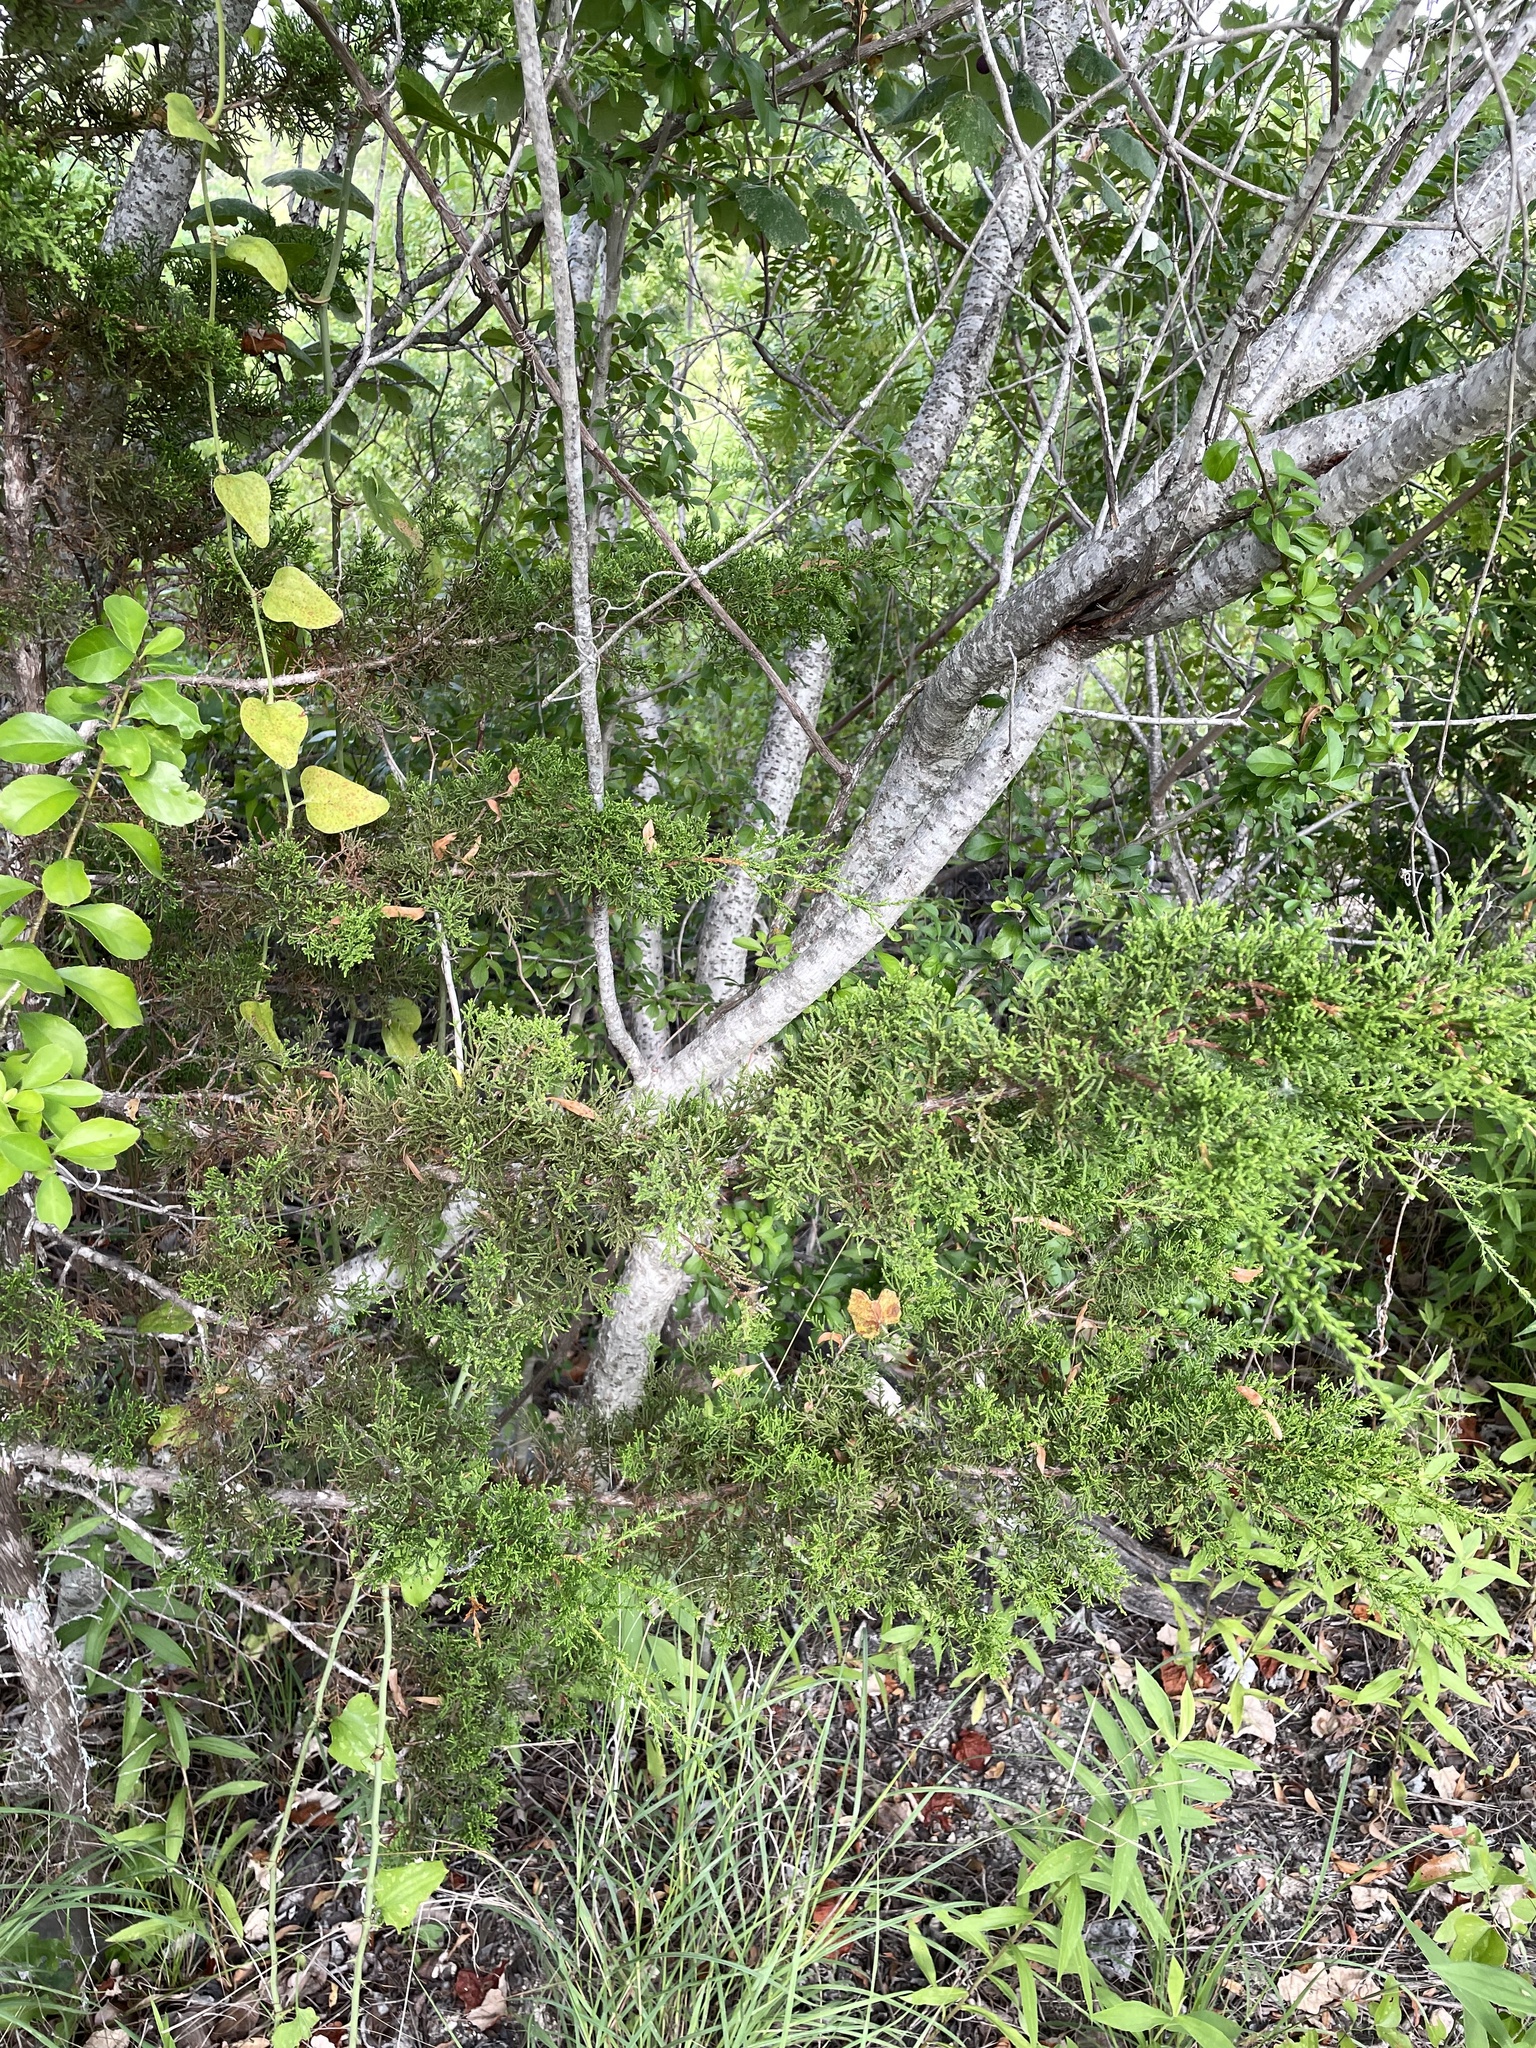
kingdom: Plantae
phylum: Tracheophyta
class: Magnoliopsida
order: Sapindales
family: Anacardiaceae
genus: Rhus
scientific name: Rhus lanceolata
